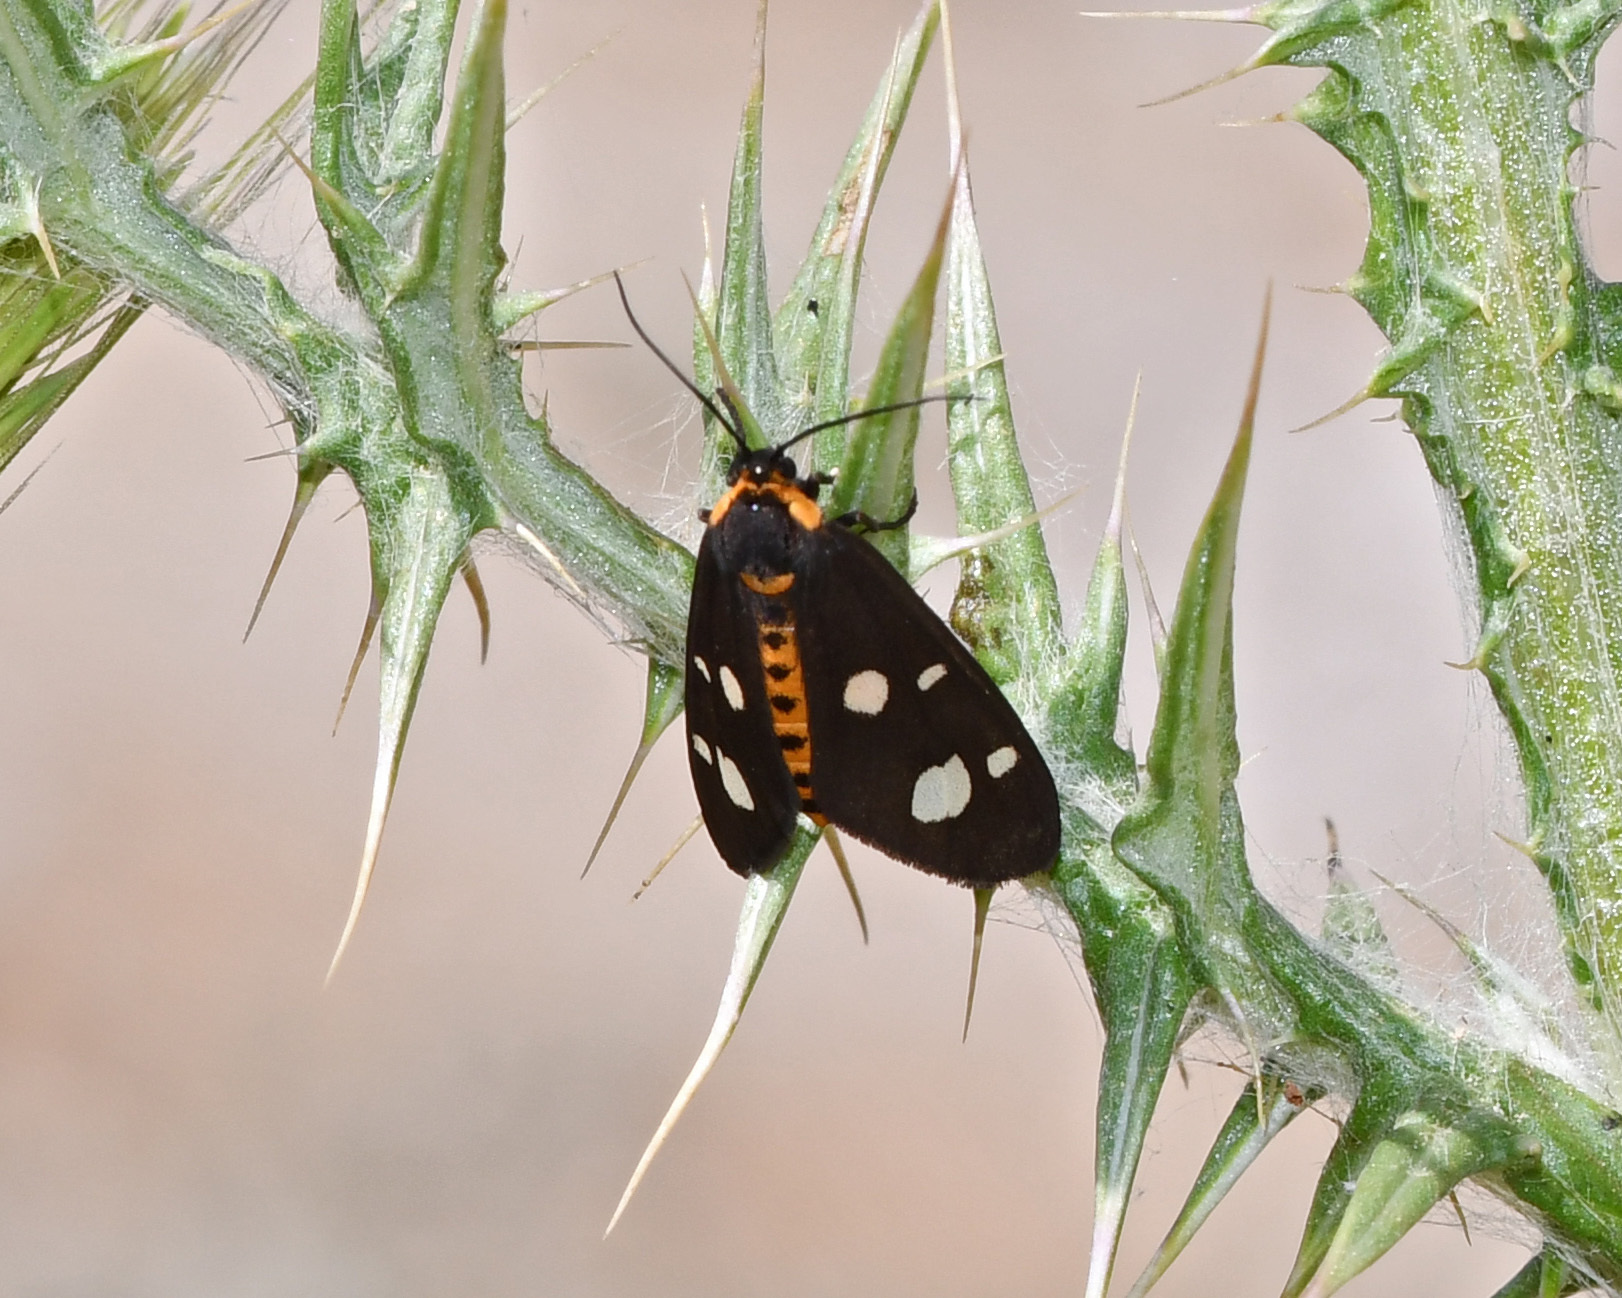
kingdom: Animalia
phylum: Arthropoda
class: Insecta
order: Lepidoptera
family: Erebidae
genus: Dysauxes
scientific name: Dysauxes punctata
